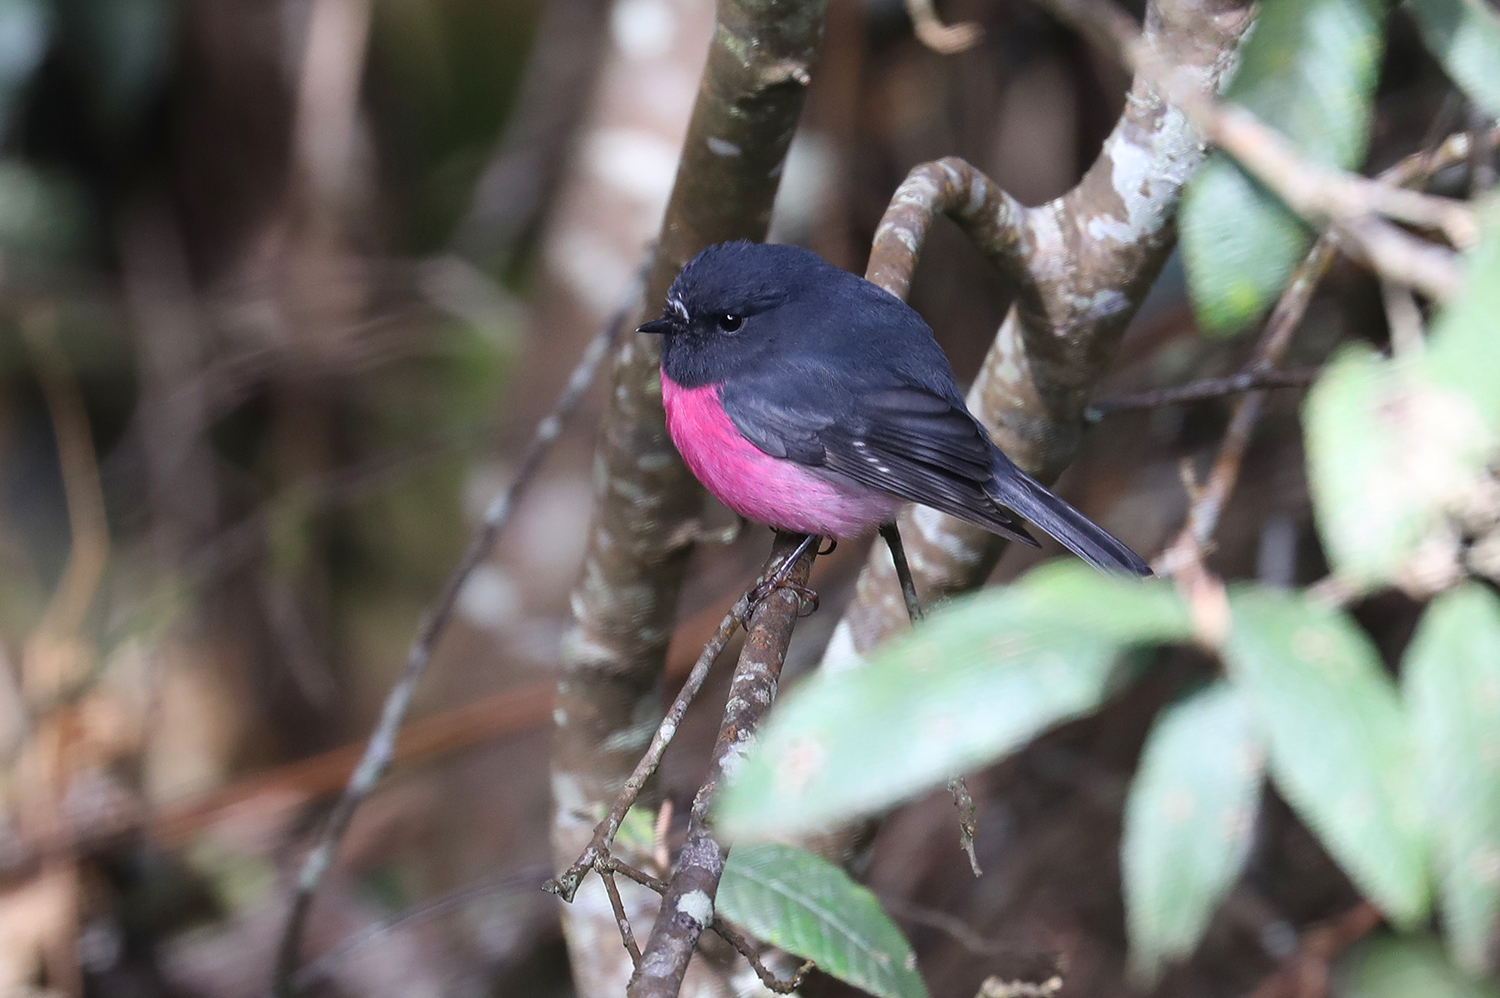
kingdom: Animalia
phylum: Chordata
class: Aves
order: Passeriformes
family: Petroicidae
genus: Petroica
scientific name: Petroica rodinogaster
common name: Pink robin
